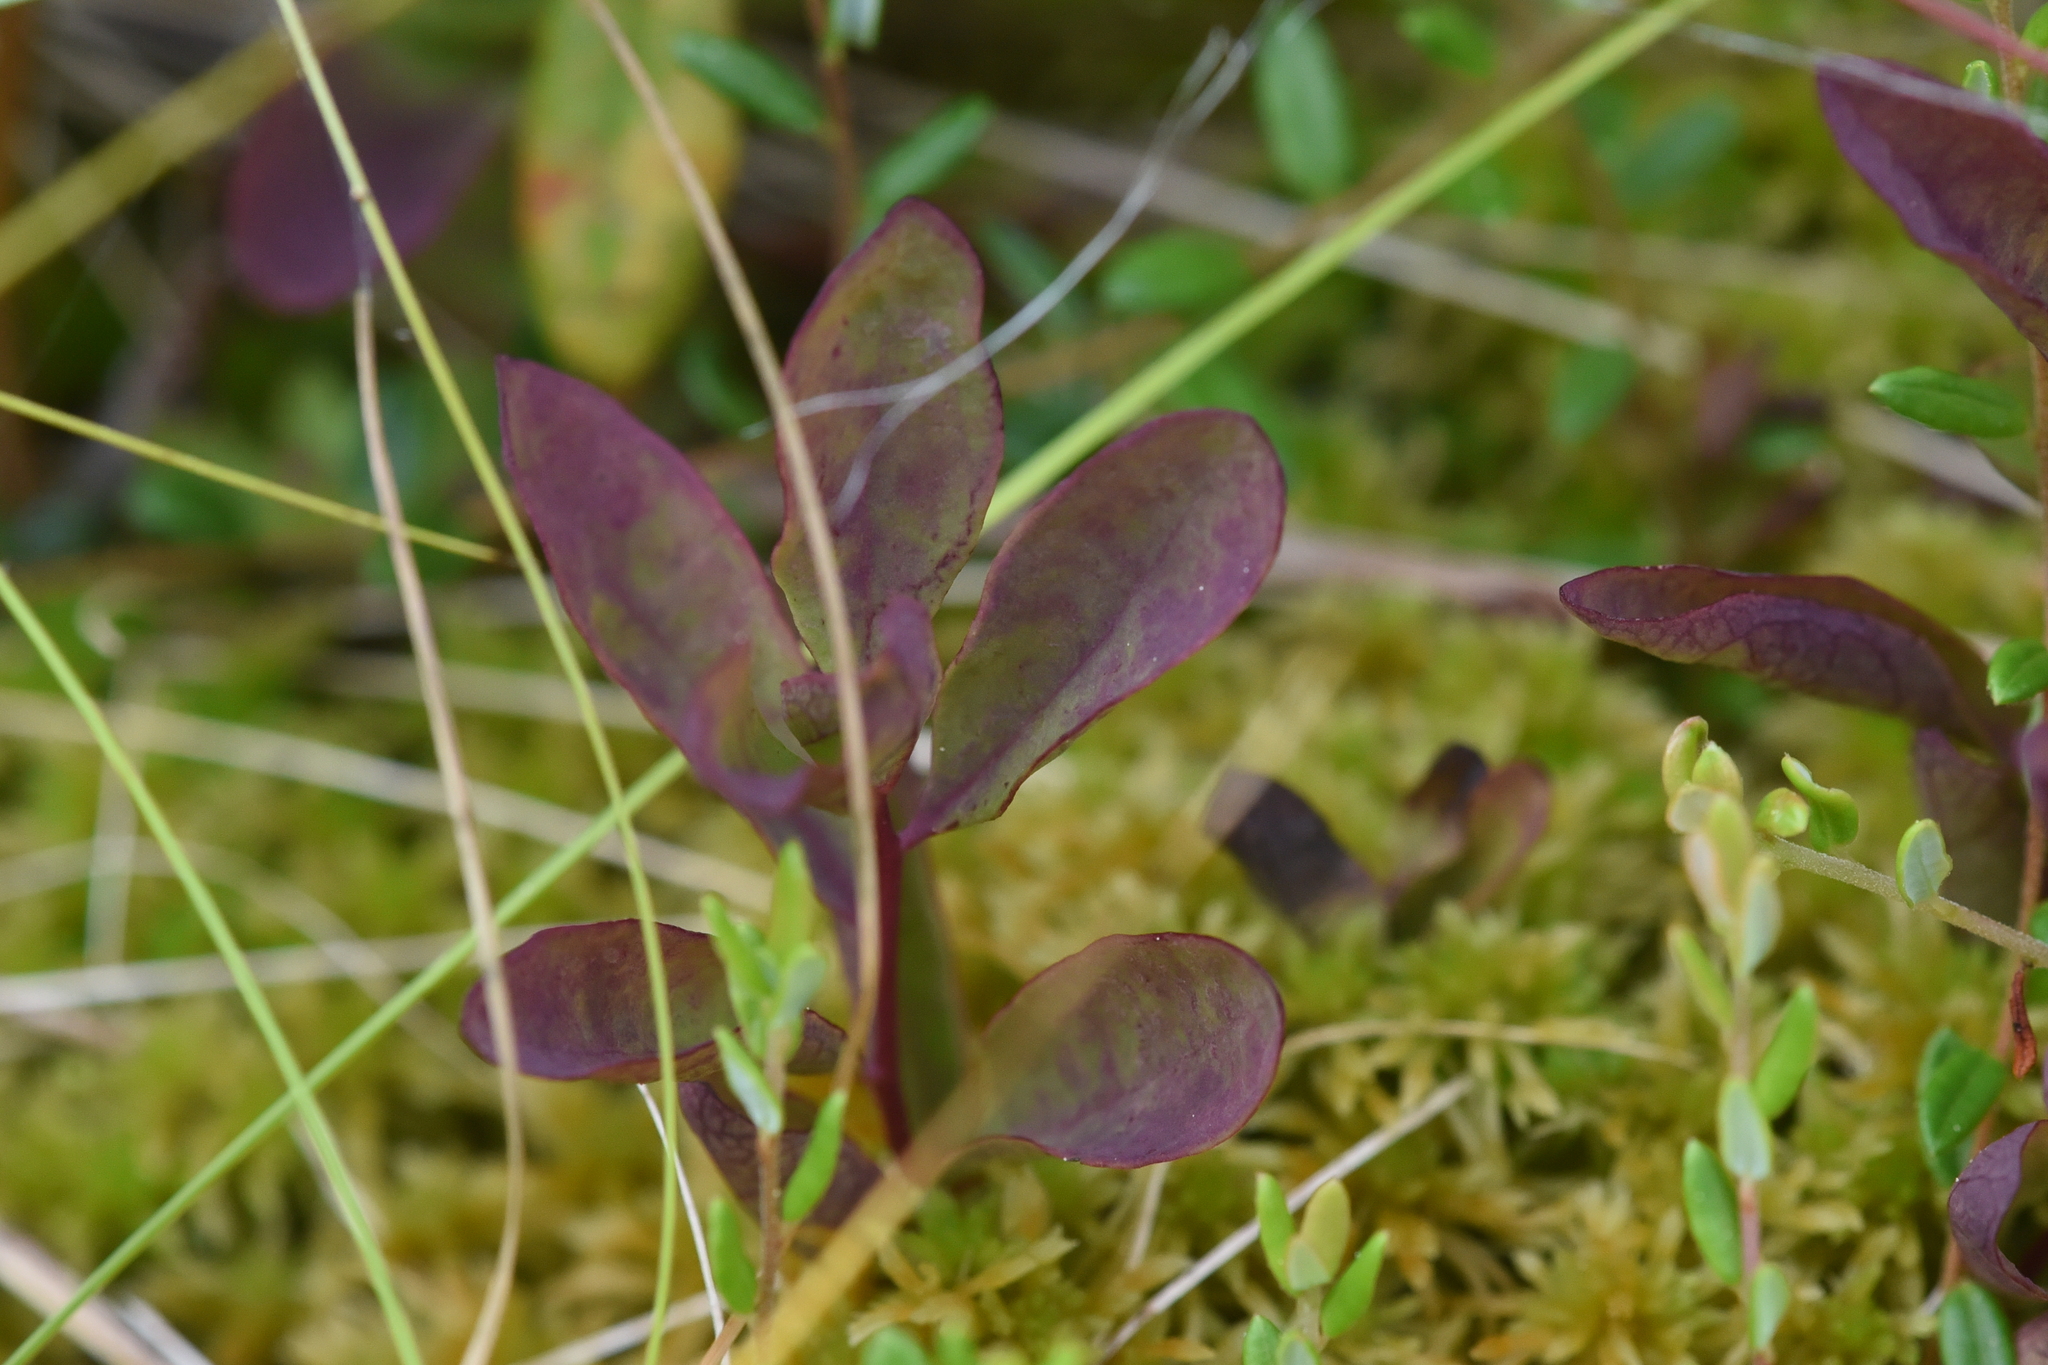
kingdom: Plantae
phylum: Tracheophyta
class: Magnoliopsida
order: Santalales
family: Comandraceae
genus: Geocaulon
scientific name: Geocaulon lividum
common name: Earthberry
